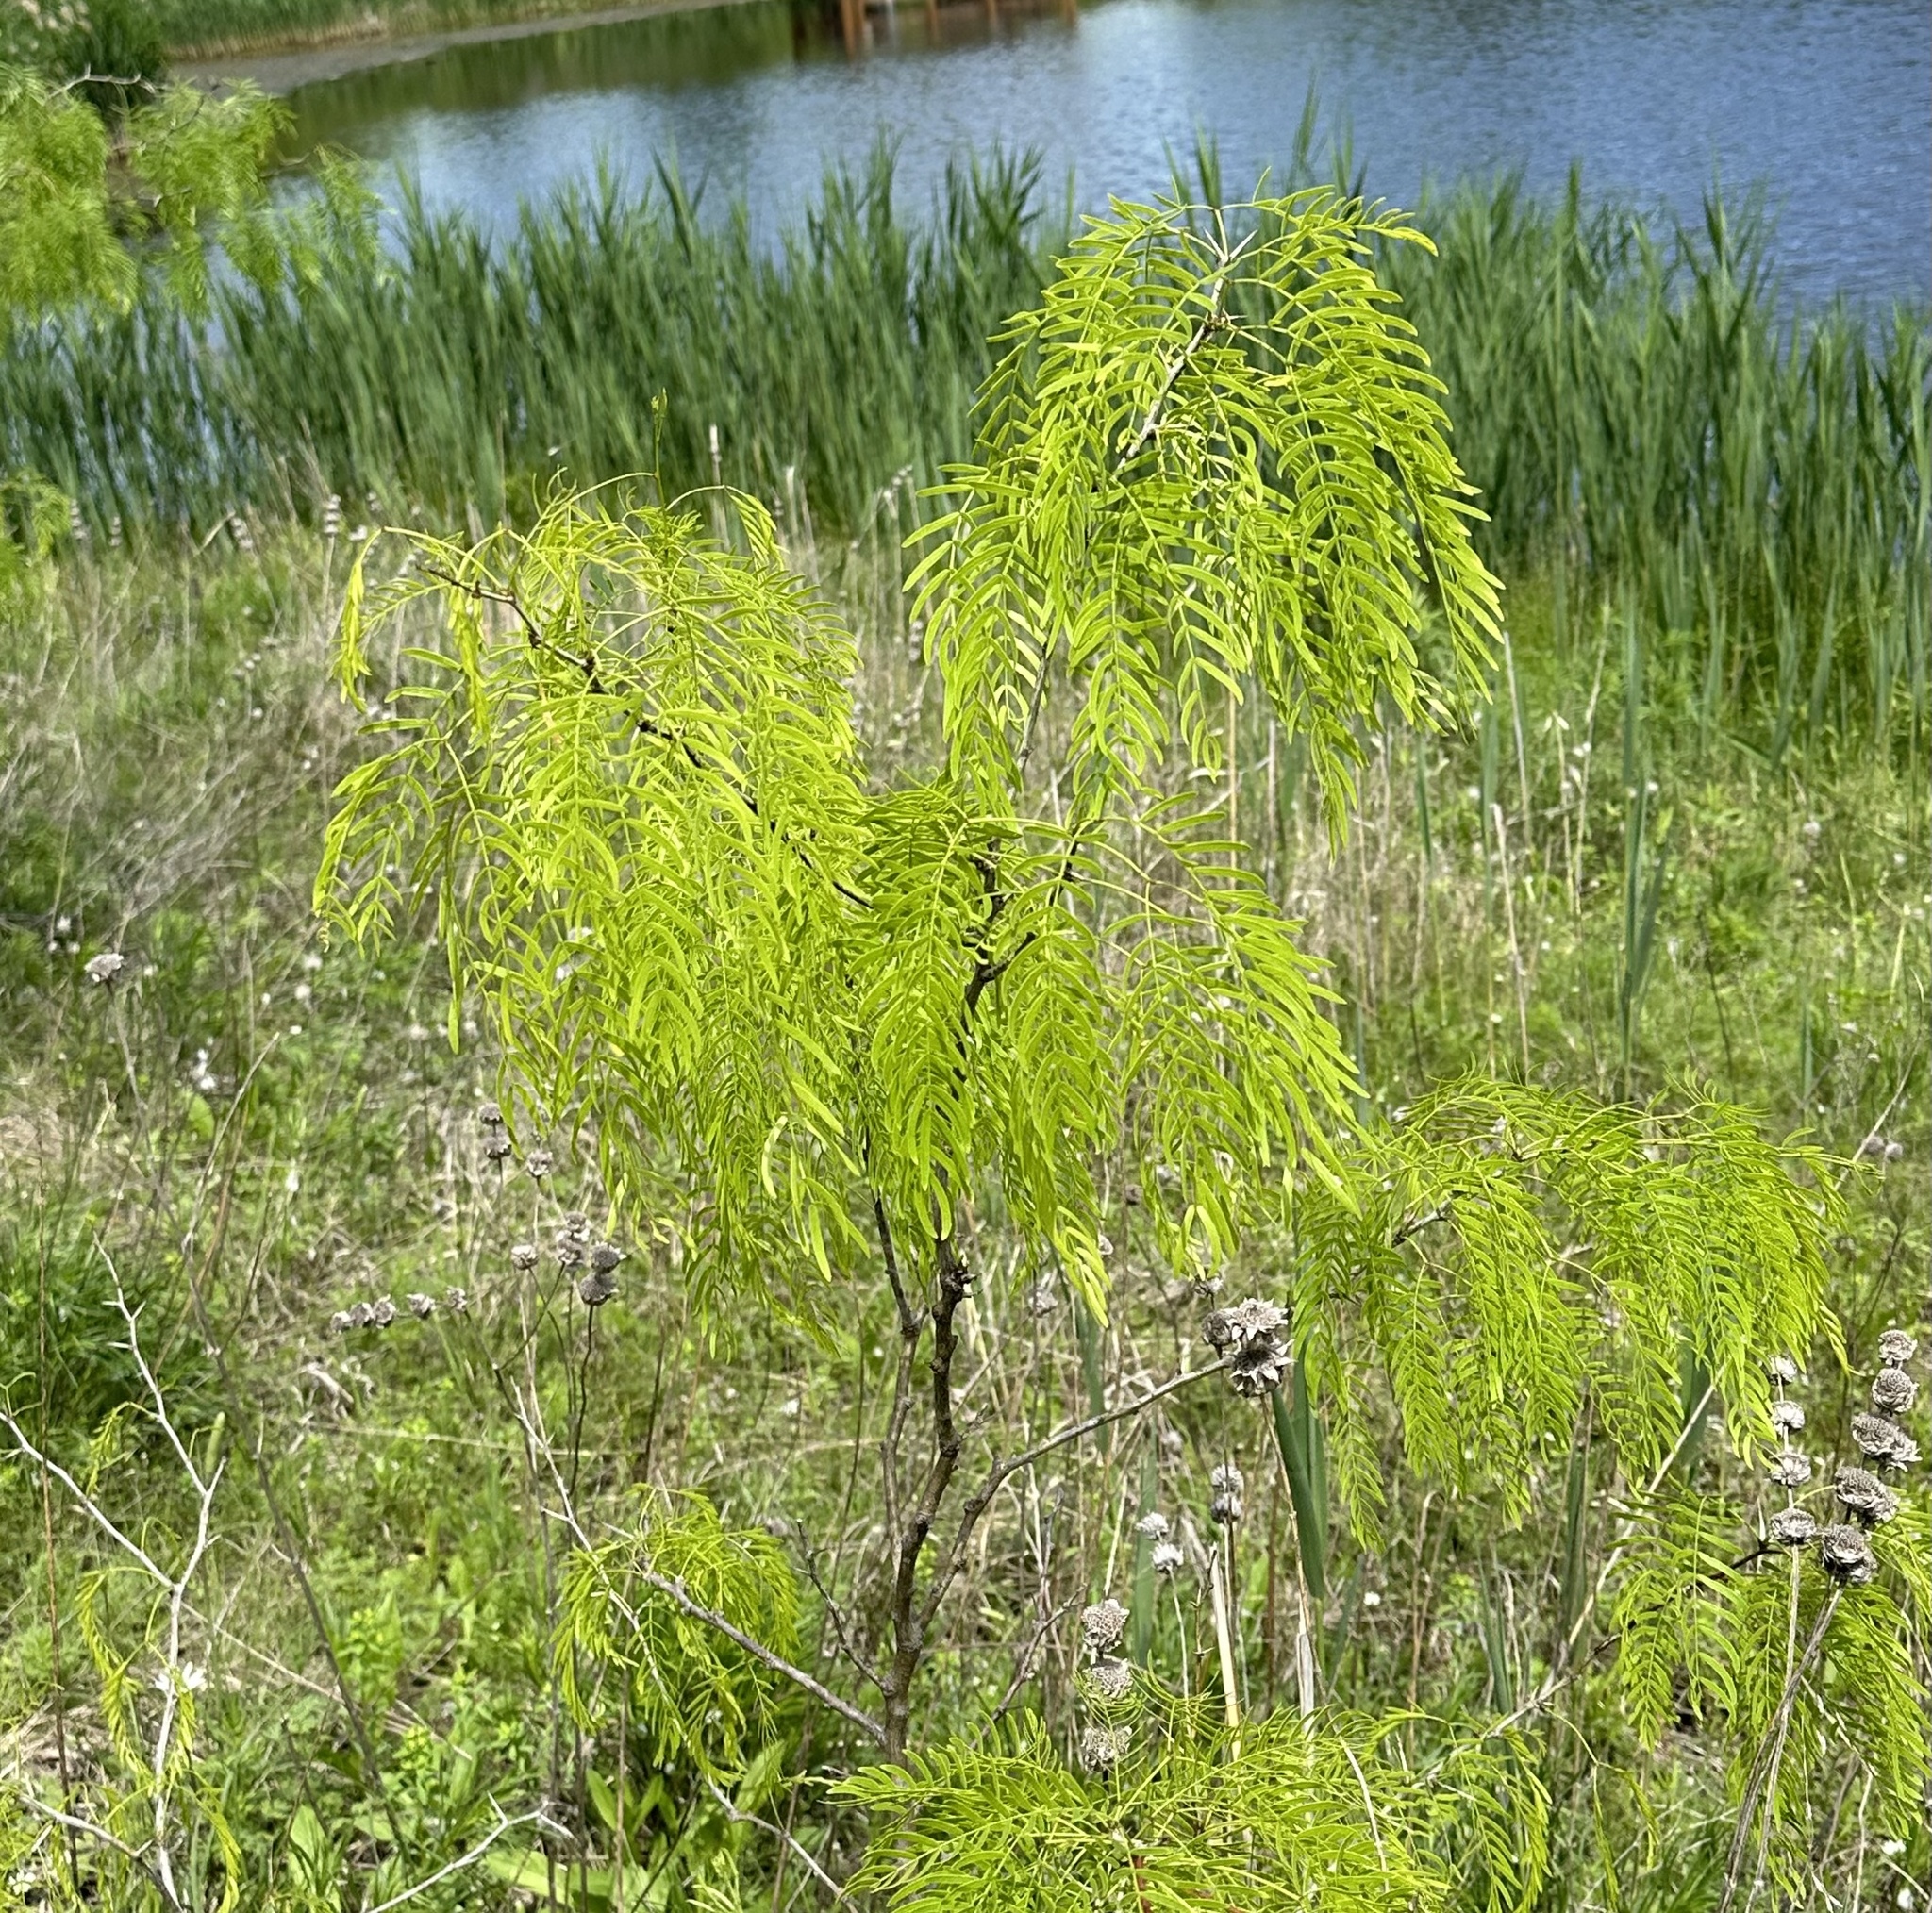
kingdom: Plantae
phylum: Tracheophyta
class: Magnoliopsida
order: Fabales
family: Fabaceae
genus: Prosopis
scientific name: Prosopis glandulosa
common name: Honey mesquite
